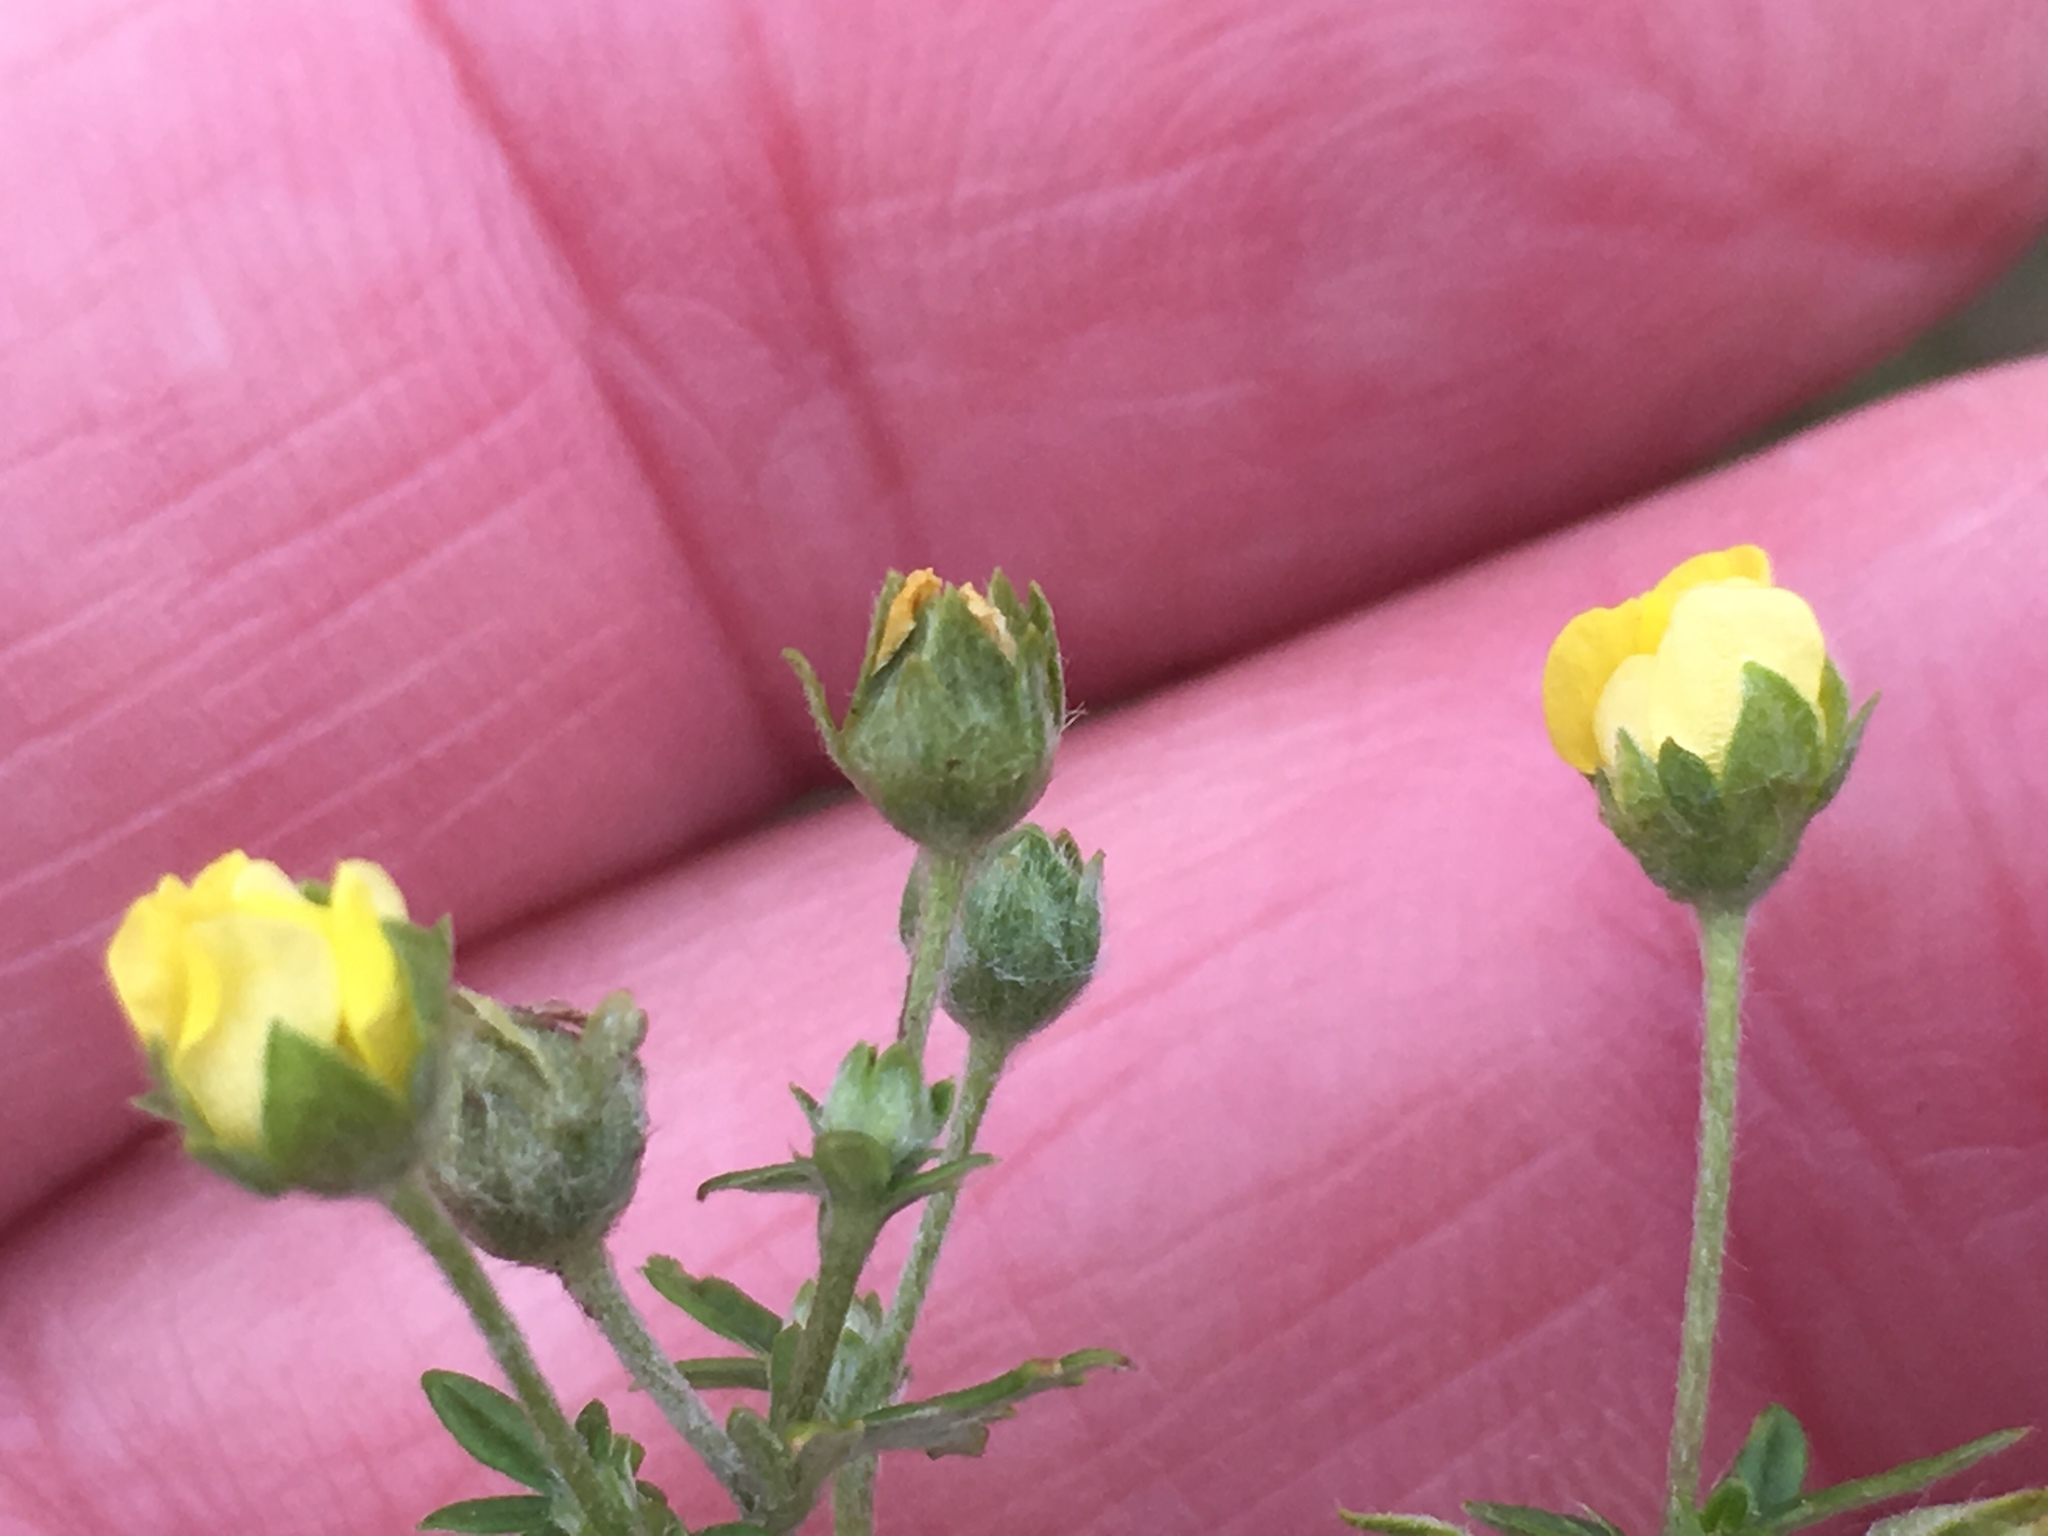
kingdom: Plantae
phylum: Tracheophyta
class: Magnoliopsida
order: Rosales
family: Rosaceae
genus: Potentilla
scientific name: Potentilla argentea
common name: Hoary cinquefoil
